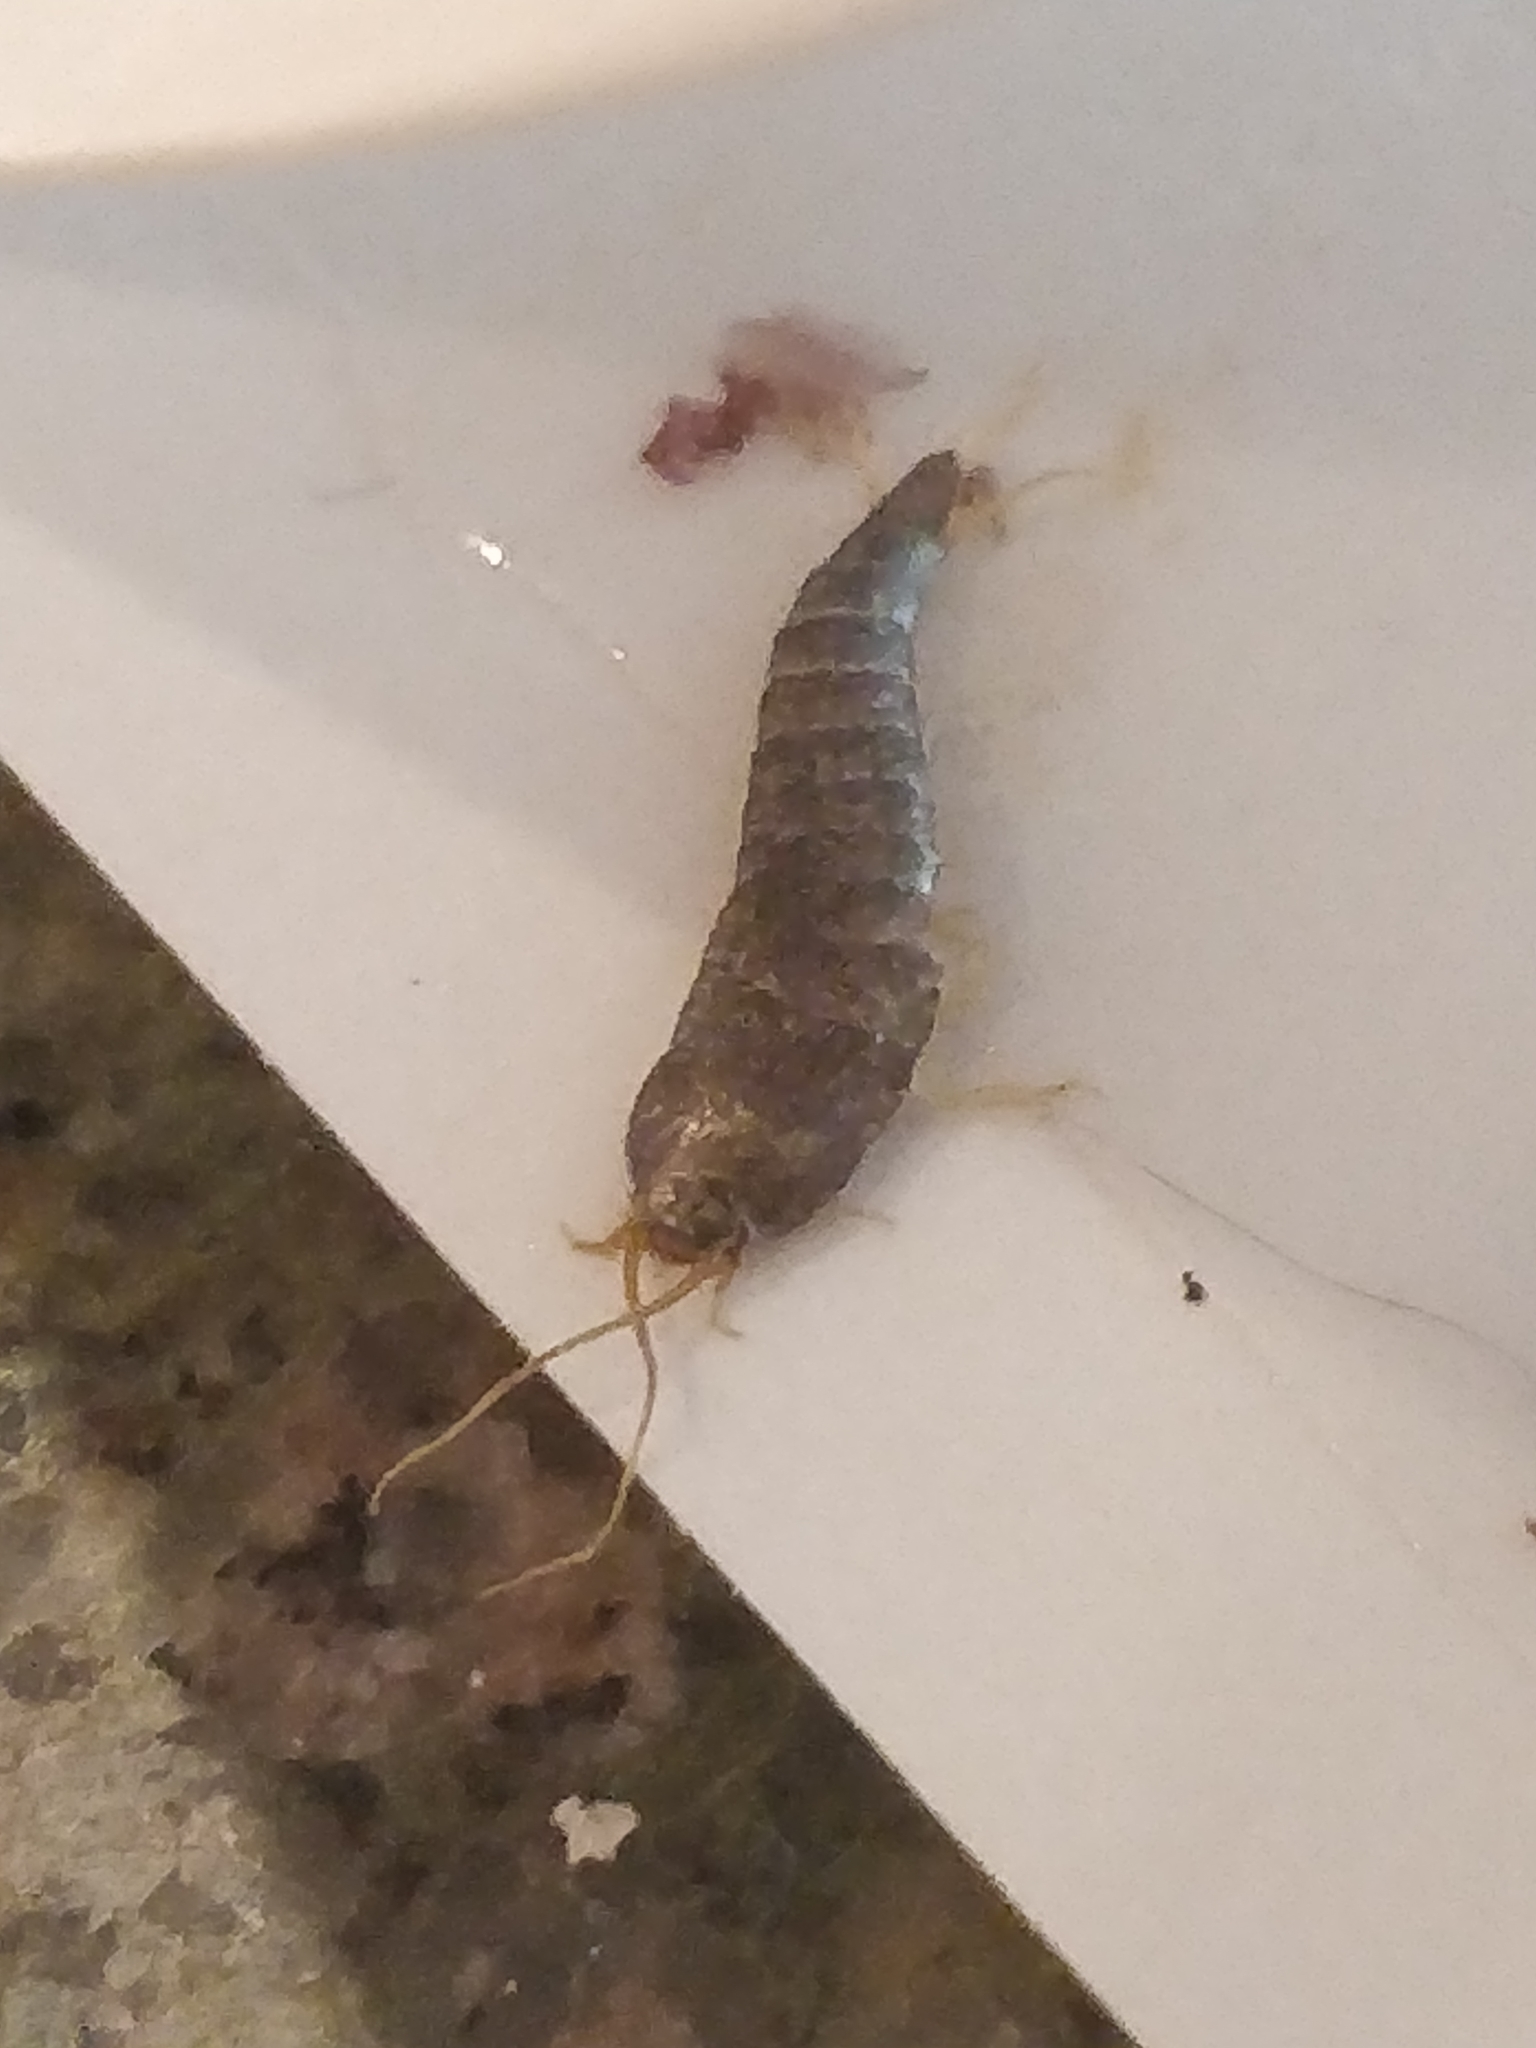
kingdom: Animalia
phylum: Arthropoda
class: Insecta
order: Zygentoma
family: Lepismatidae
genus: Lepisma
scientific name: Lepisma saccharinum
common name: Silverfish
